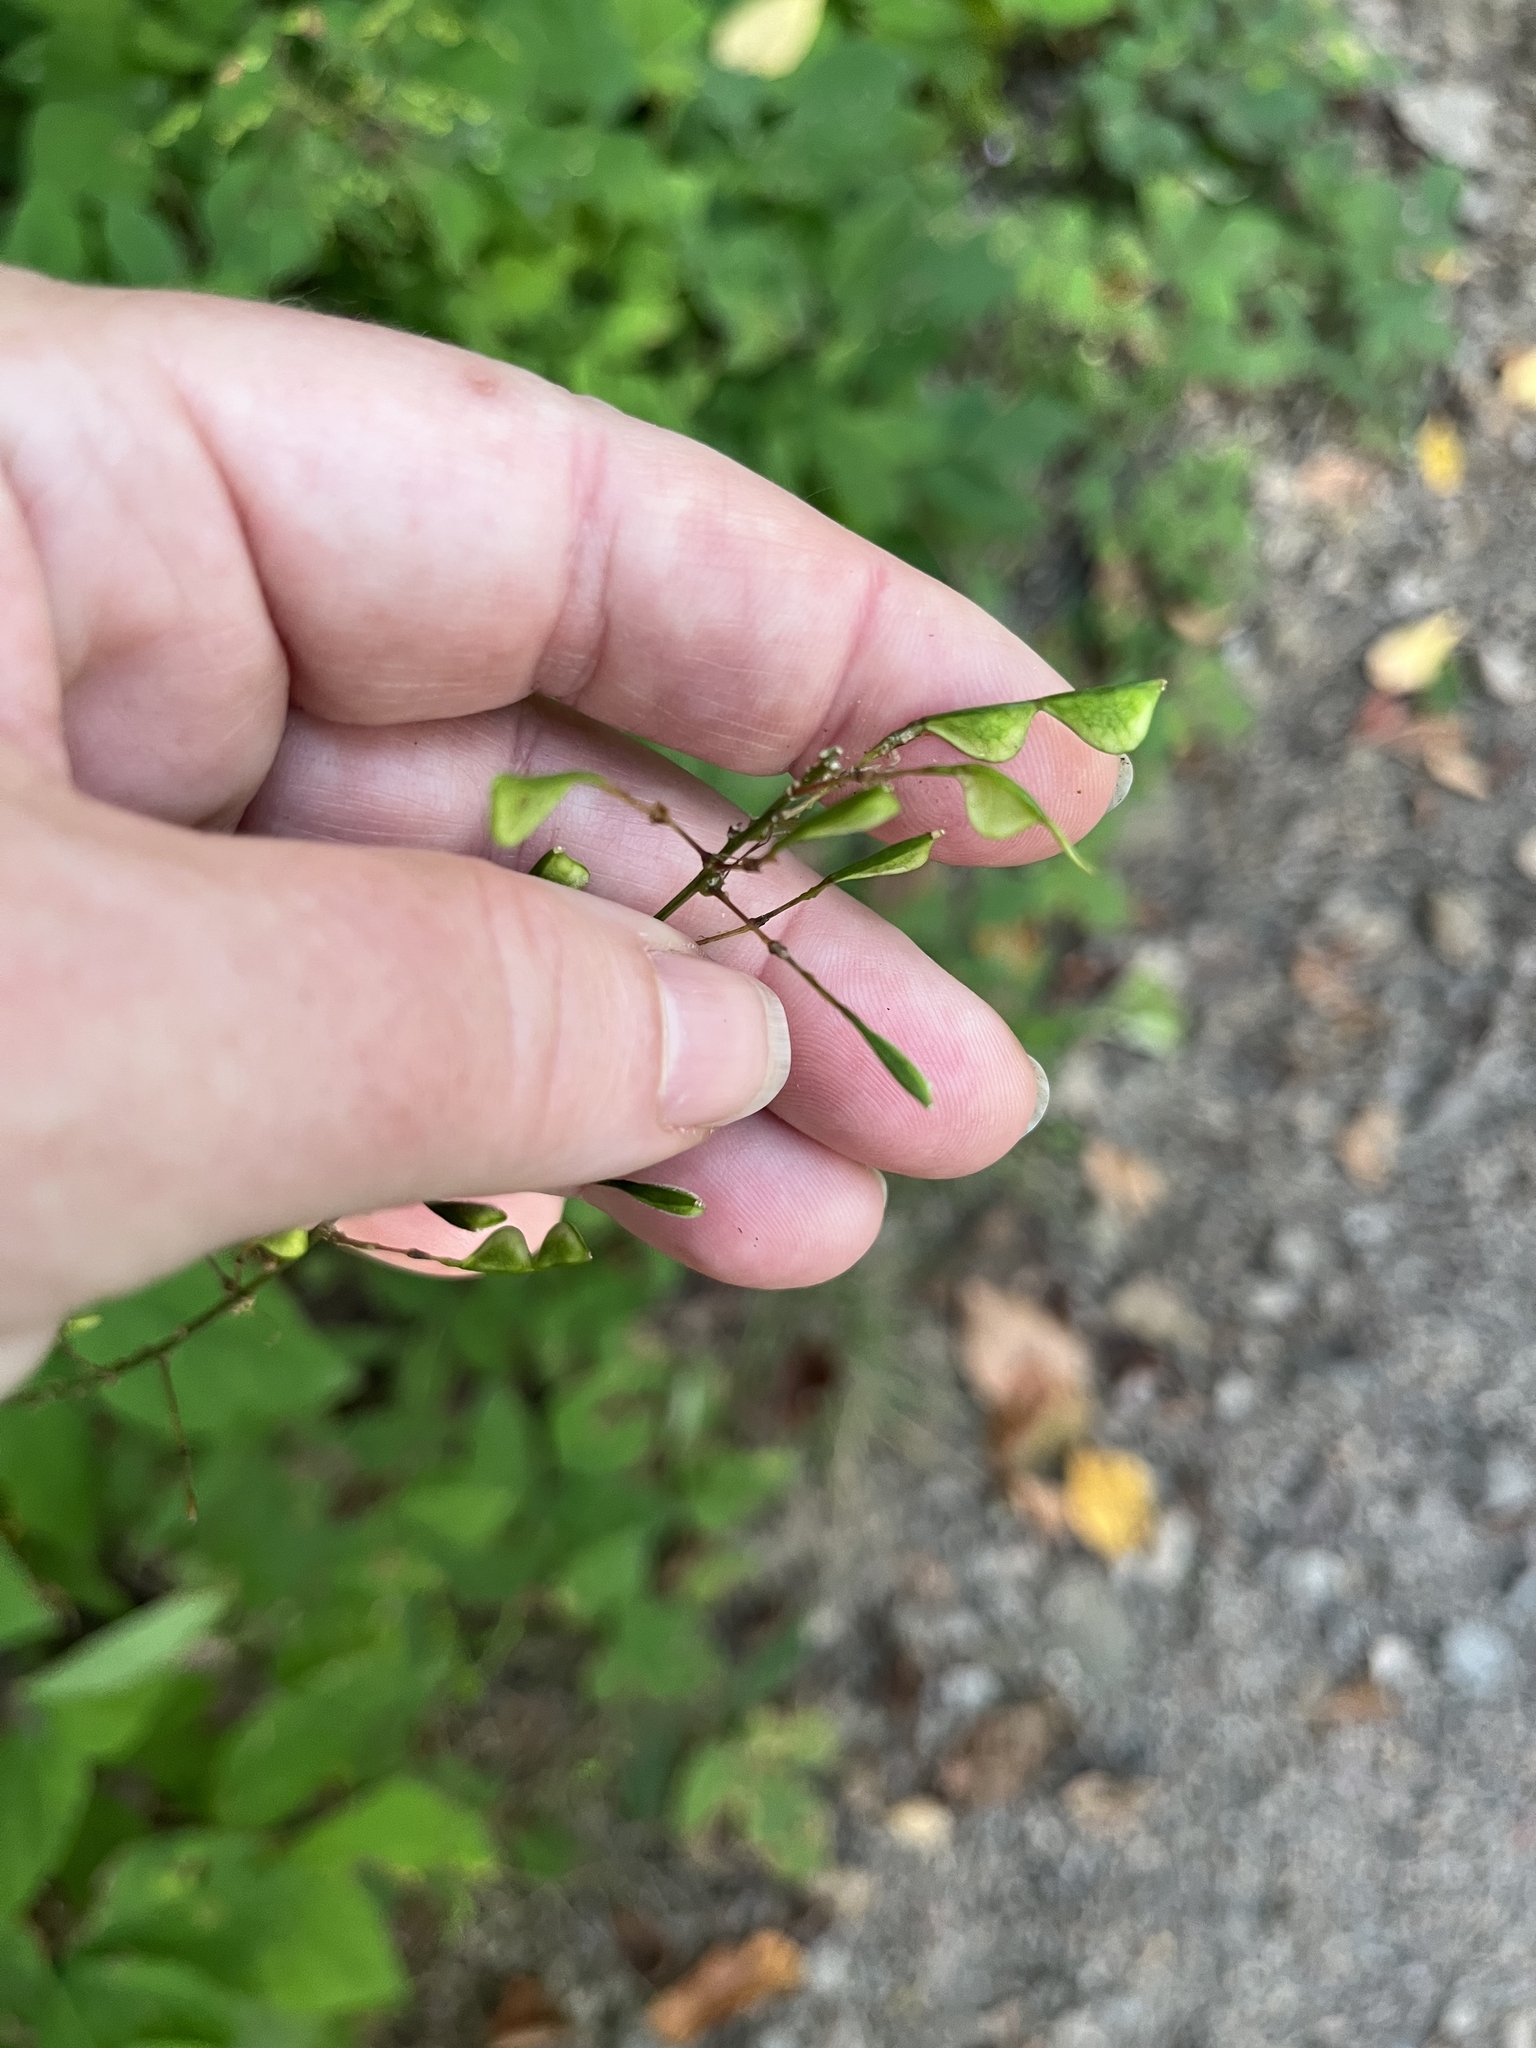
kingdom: Plantae
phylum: Tracheophyta
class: Magnoliopsida
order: Fabales
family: Fabaceae
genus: Hylodesmum
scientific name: Hylodesmum nudiflorum
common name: Bare-stemmed tick-trefoil
